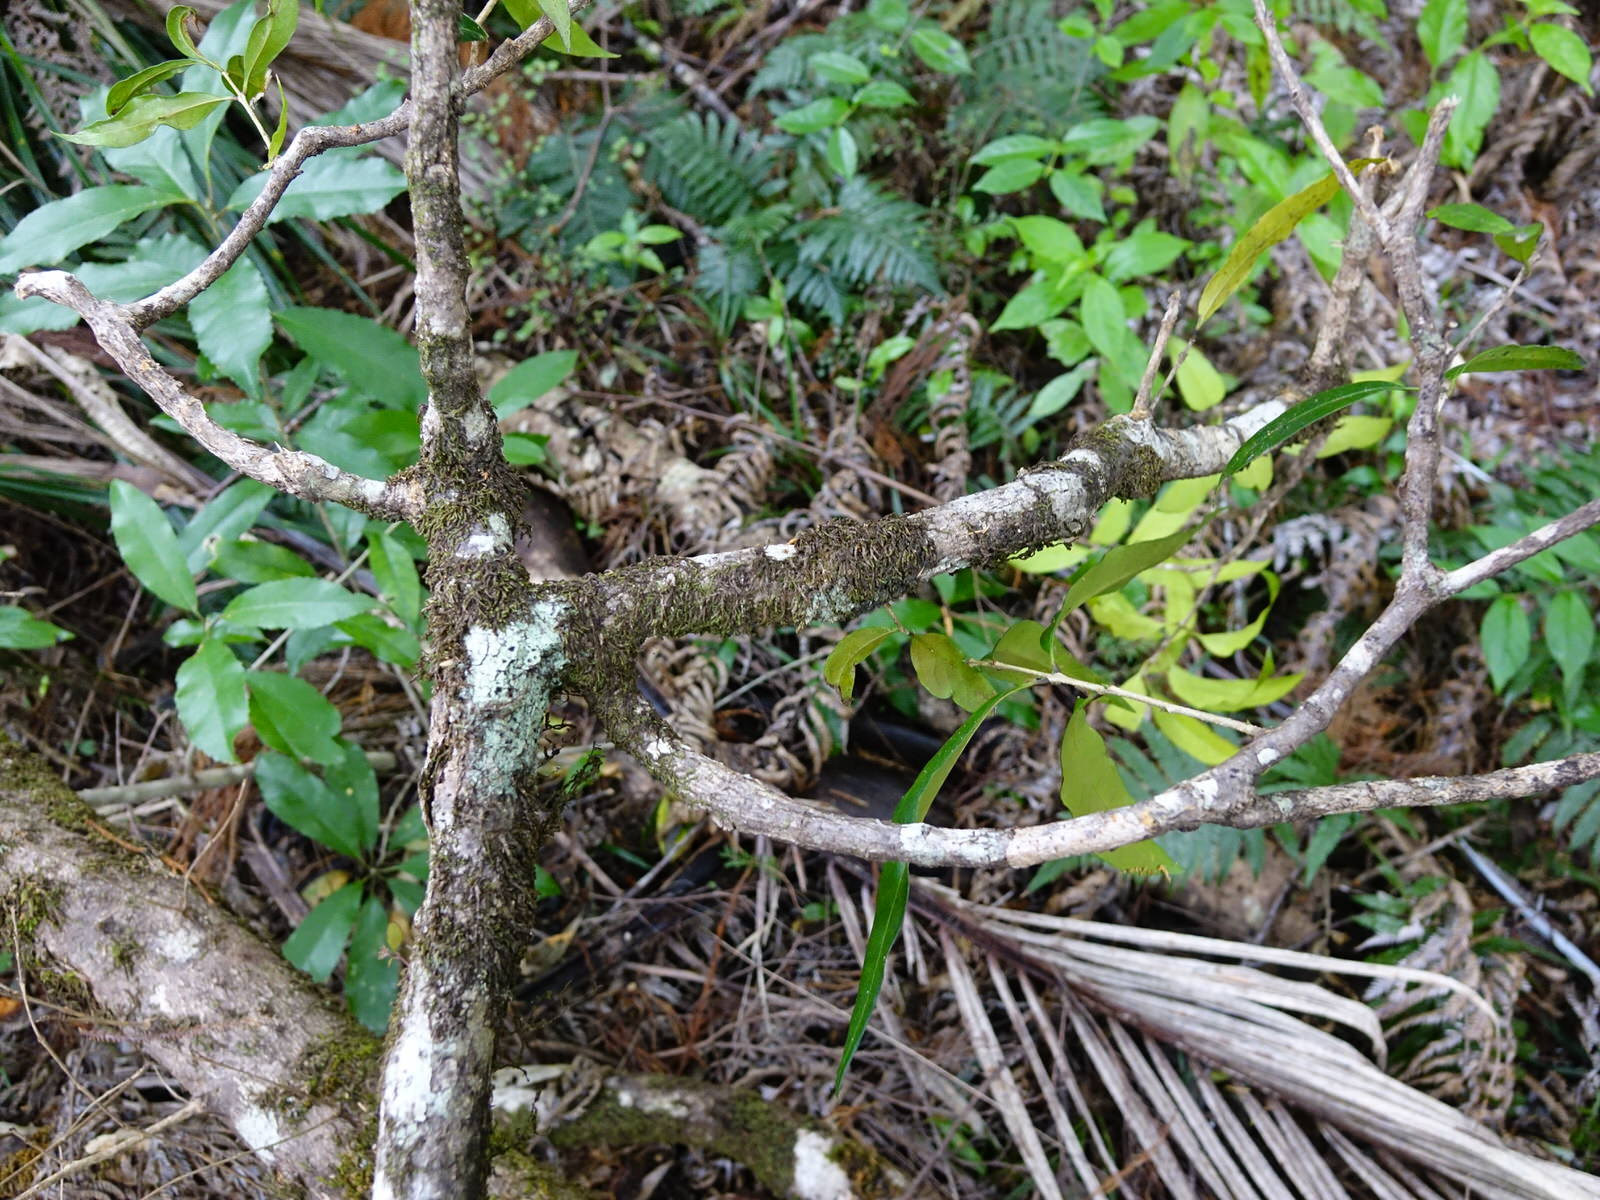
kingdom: Plantae
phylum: Tracheophyta
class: Magnoliopsida
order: Lamiales
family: Oleaceae
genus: Nestegis
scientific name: Nestegis lanceolata
